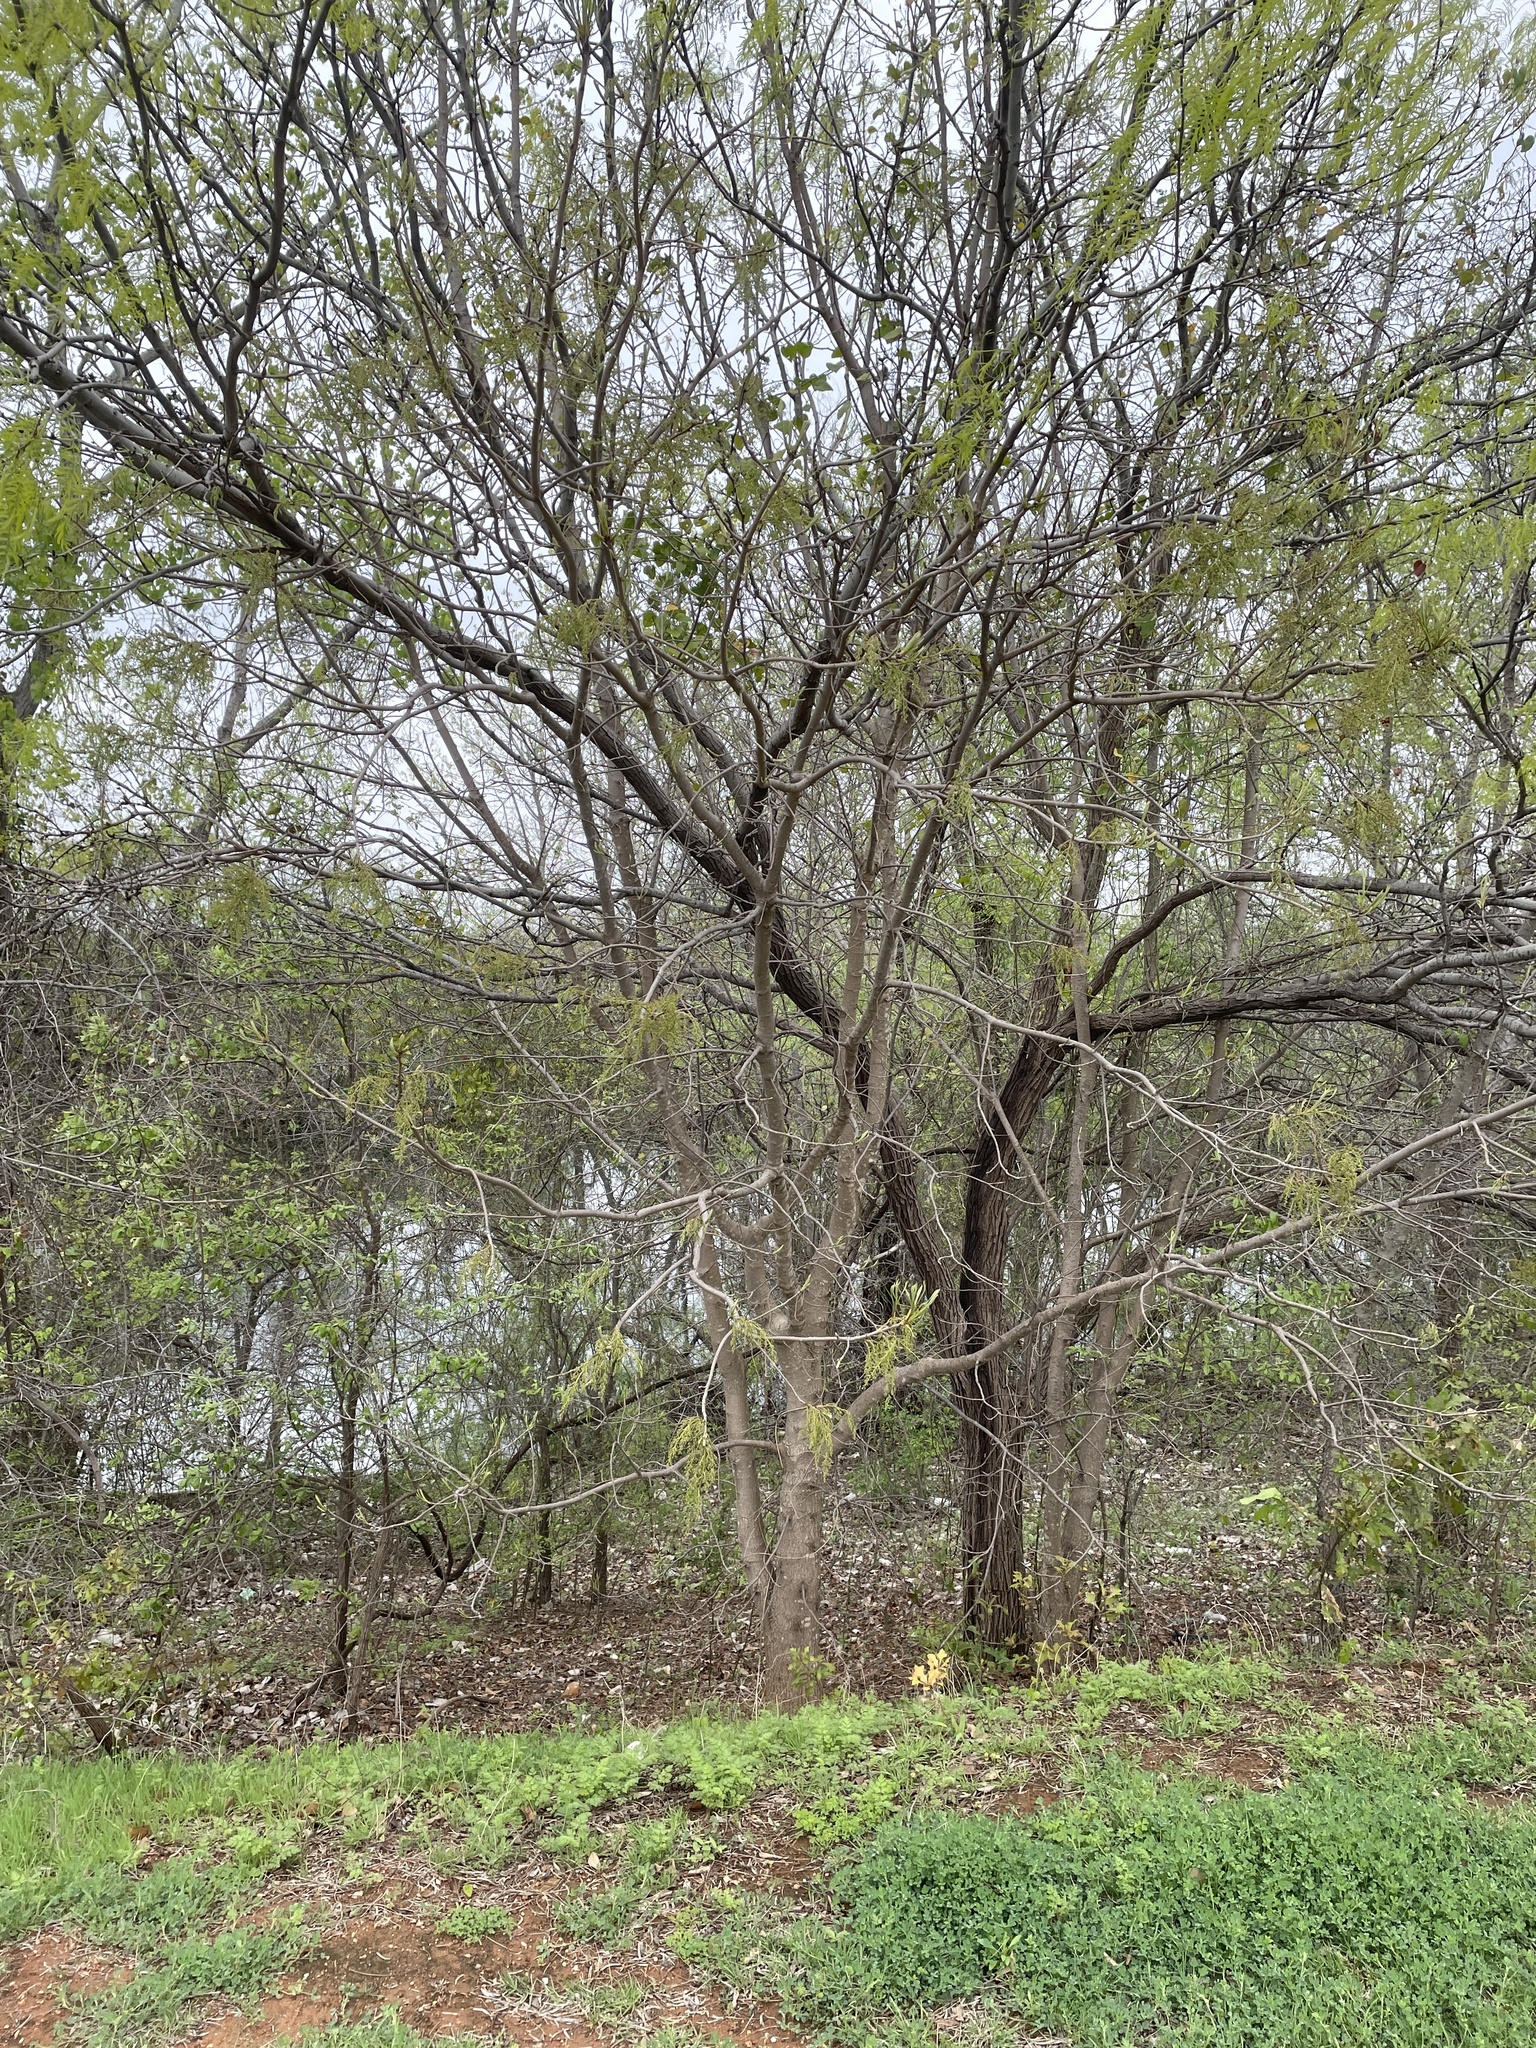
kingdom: Plantae
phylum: Tracheophyta
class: Magnoliopsida
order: Sapindales
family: Anacardiaceae
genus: Pistacia
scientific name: Pistacia chinensis
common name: Chinese pistache
